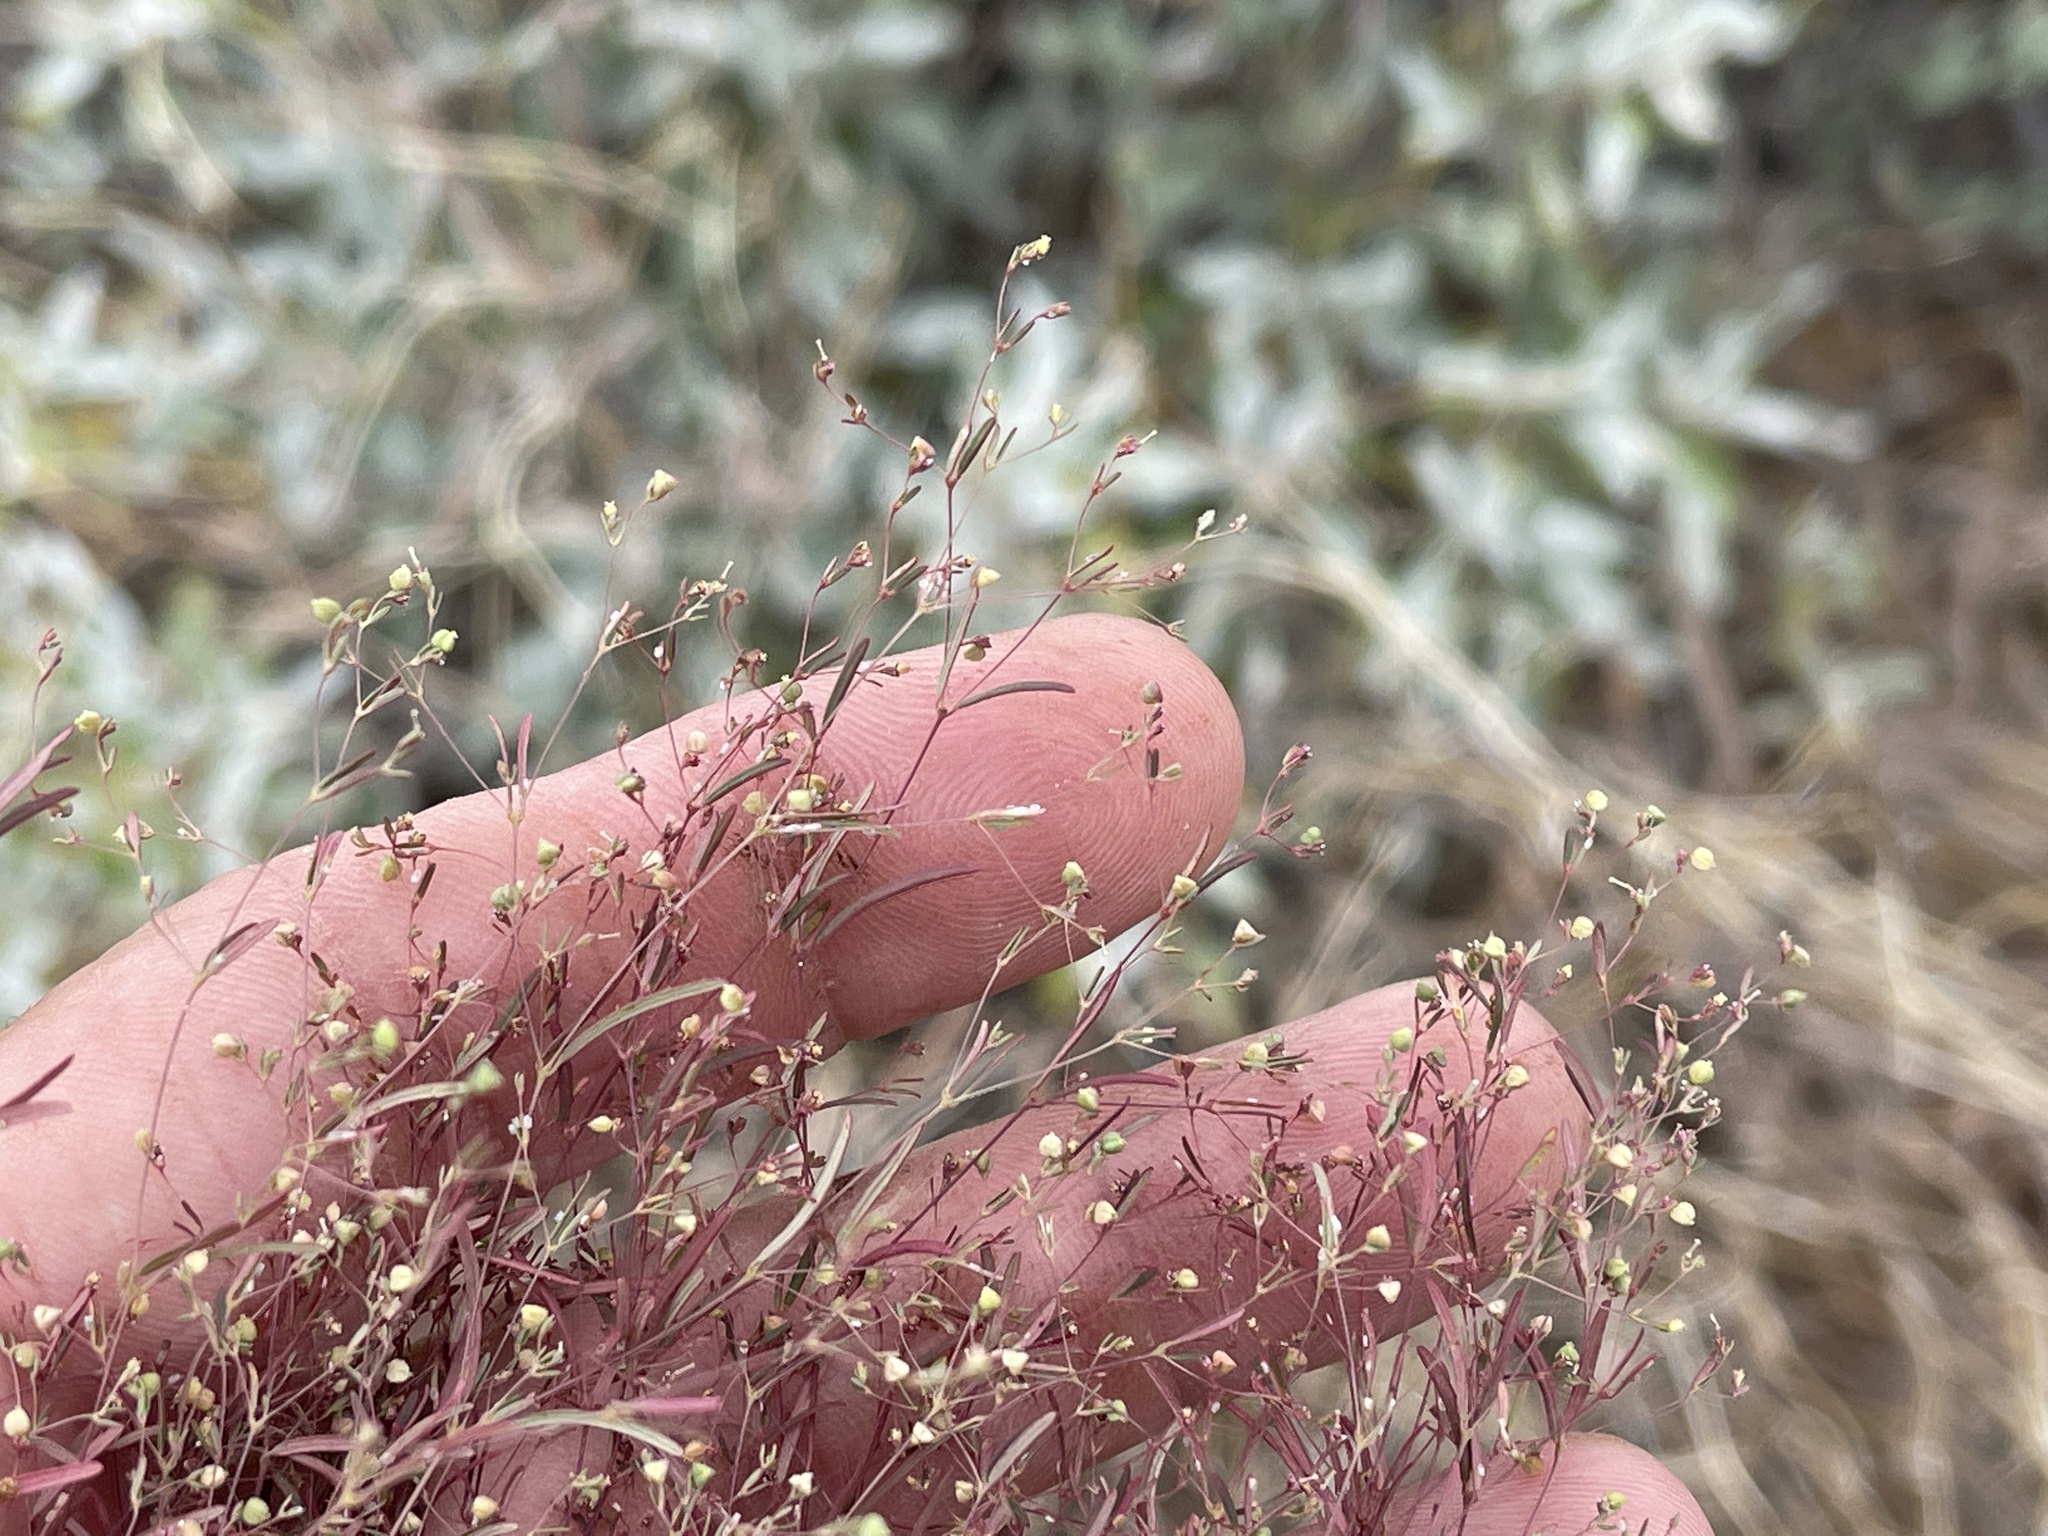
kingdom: Plantae
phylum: Tracheophyta
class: Magnoliopsida
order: Malpighiales
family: Euphorbiaceae
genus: Euphorbia
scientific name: Euphorbia gracillima
